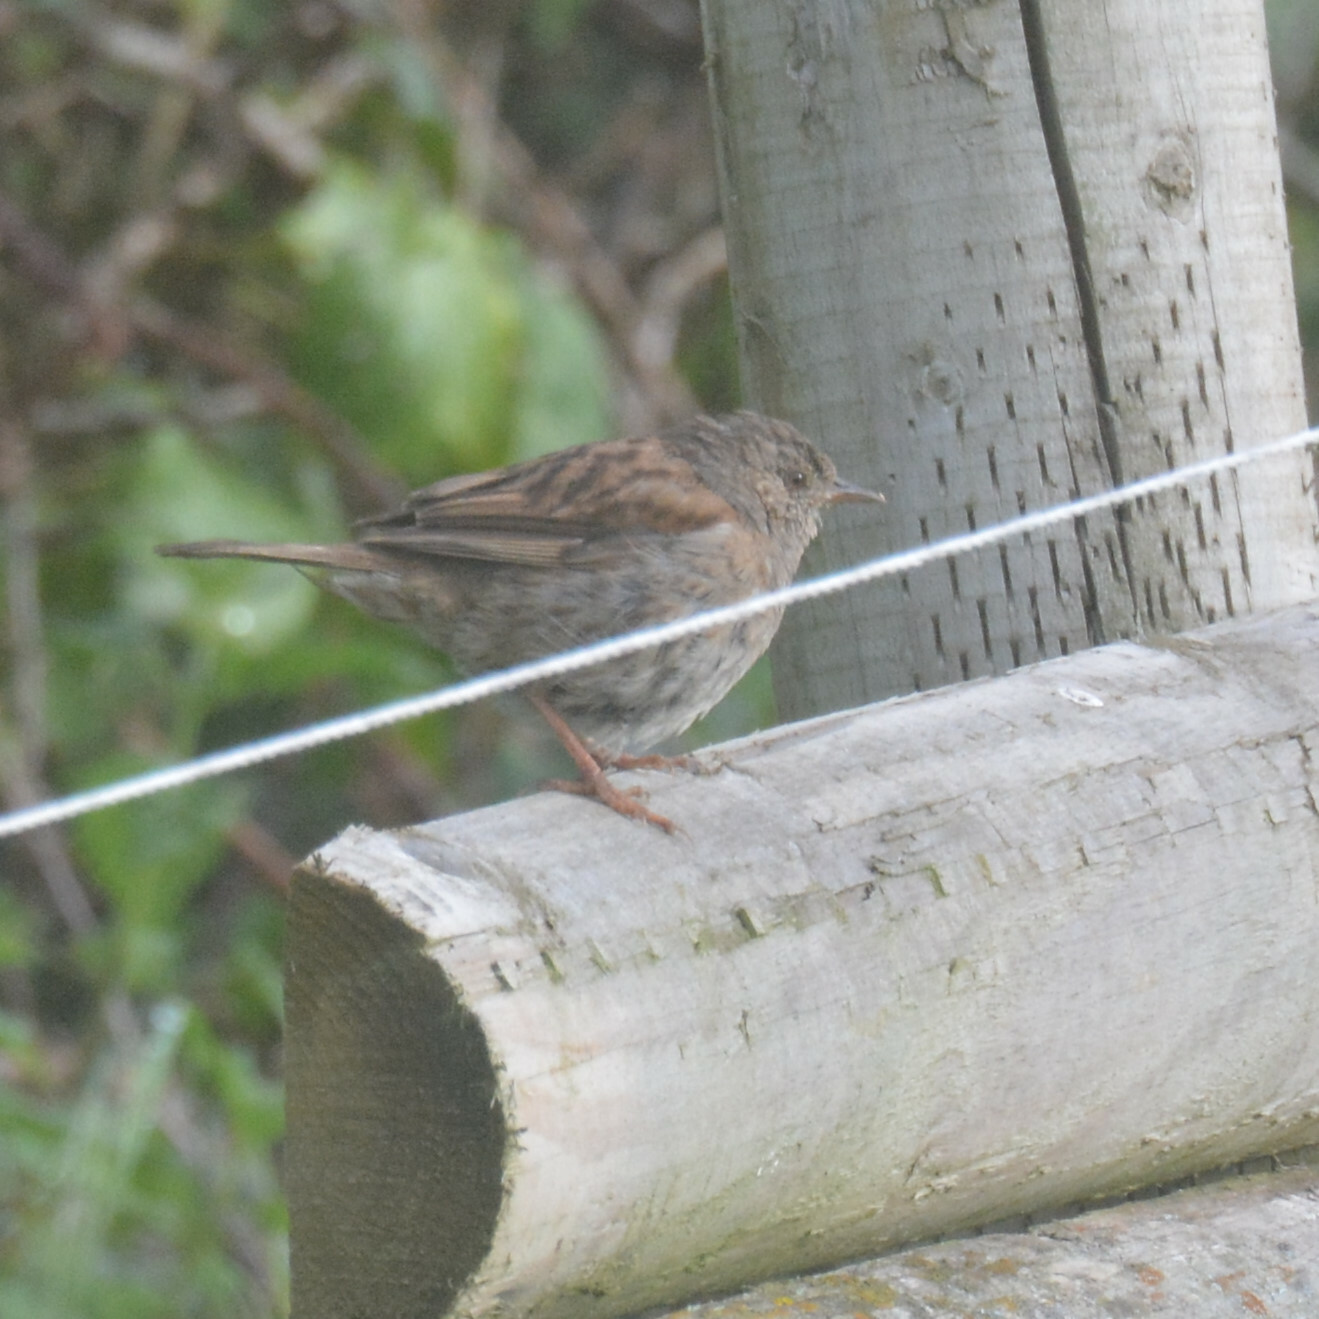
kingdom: Animalia
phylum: Chordata
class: Aves
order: Passeriformes
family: Prunellidae
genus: Prunella
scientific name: Prunella modularis
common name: Dunnock
